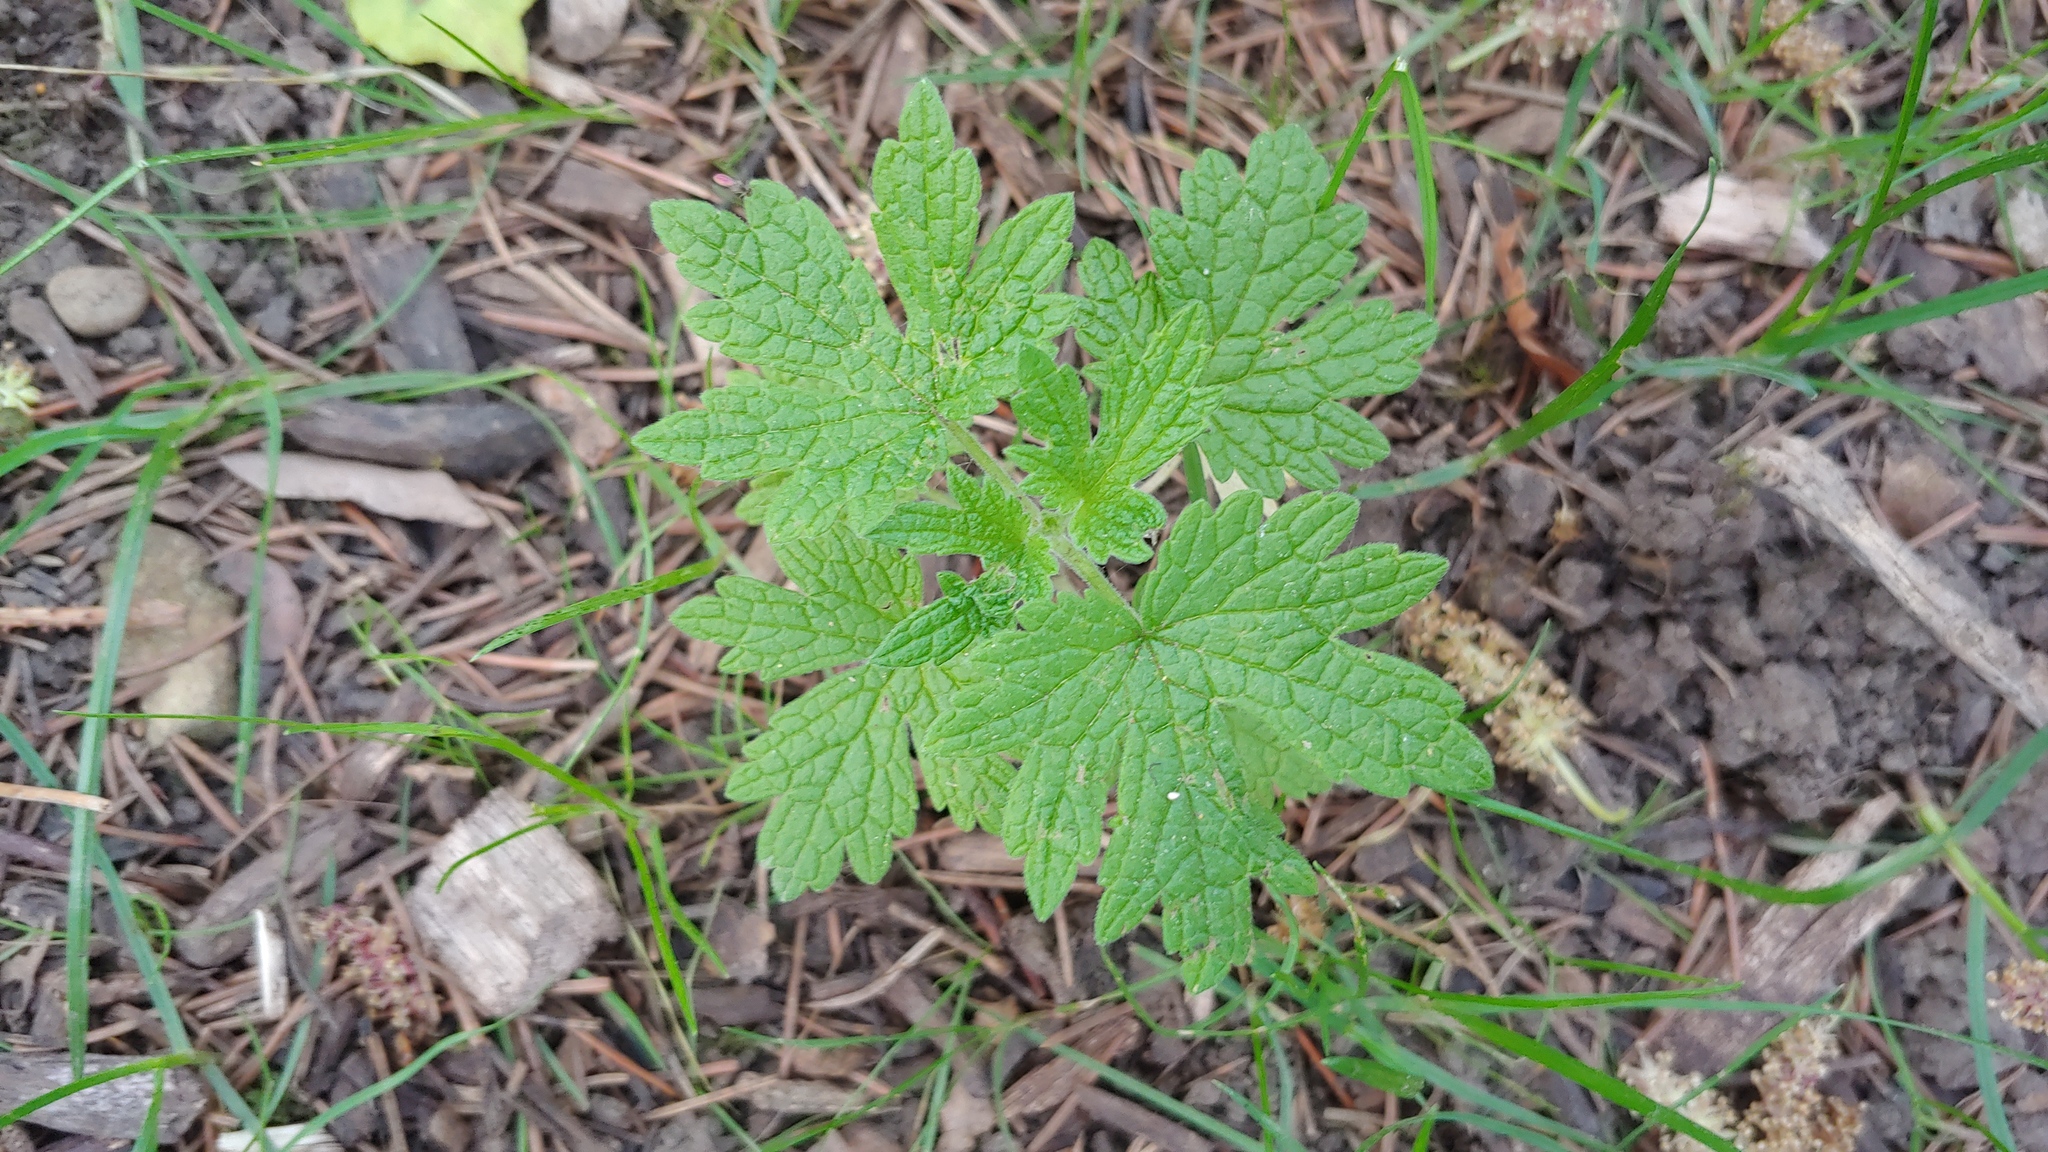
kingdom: Plantae
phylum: Tracheophyta
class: Magnoliopsida
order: Lamiales
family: Lamiaceae
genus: Leonurus
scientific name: Leonurus cardiaca
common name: Motherwort
